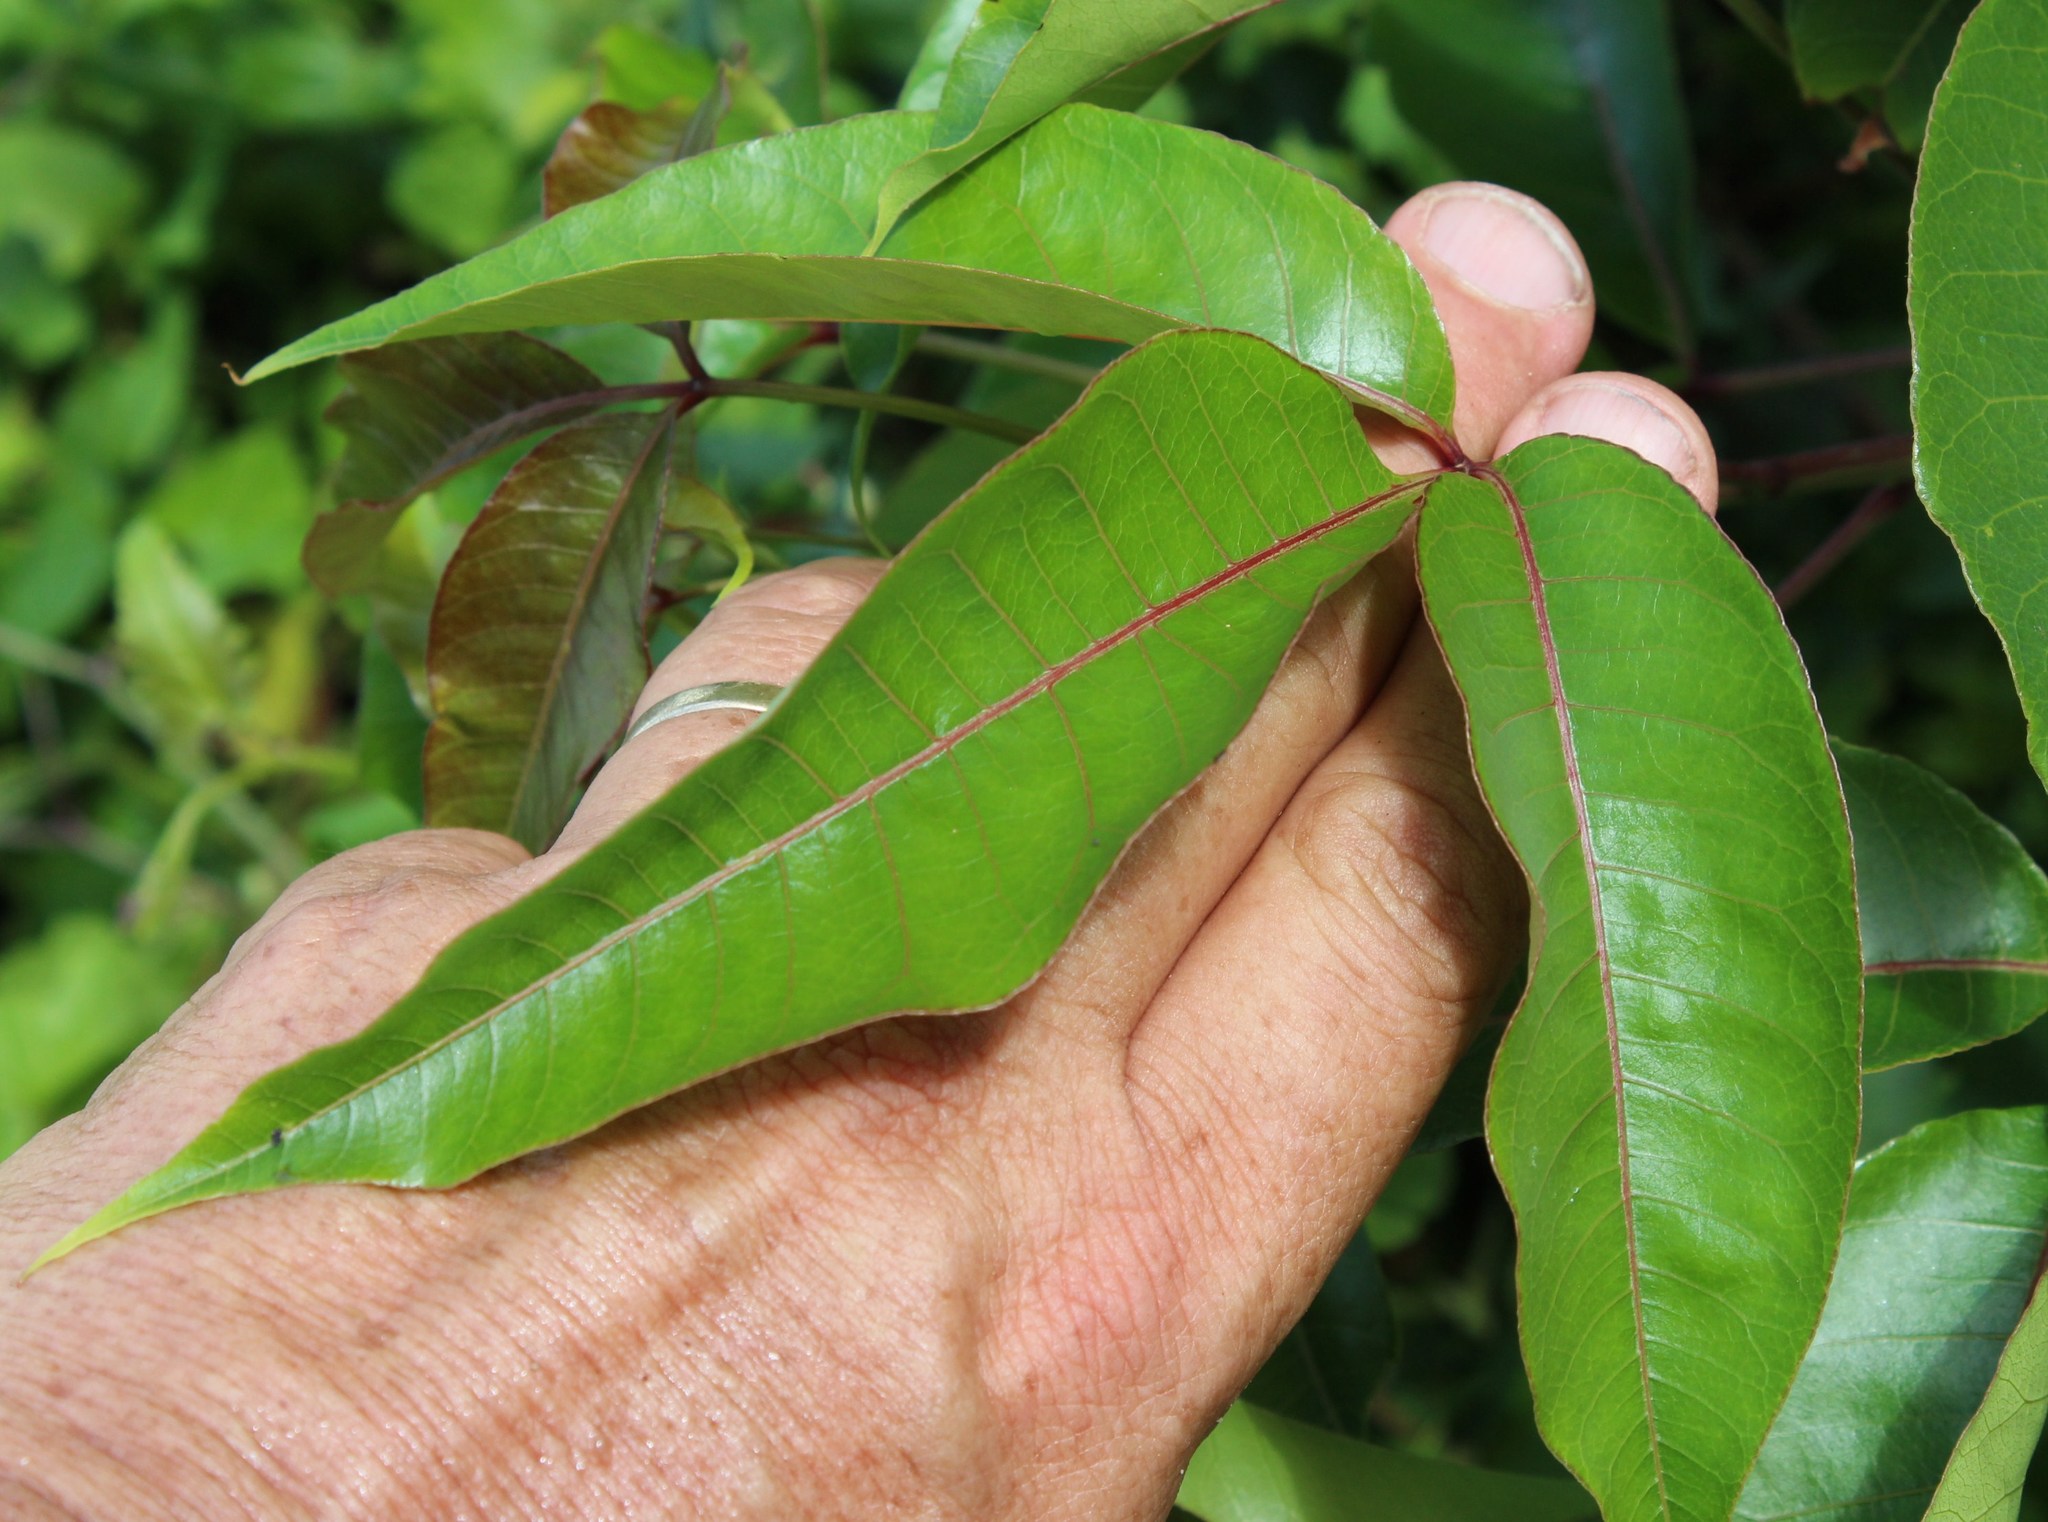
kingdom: Plantae
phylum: Tracheophyta
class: Magnoliopsida
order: Sapindales
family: Anacardiaceae
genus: Searsia
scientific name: Searsia chirindensis
